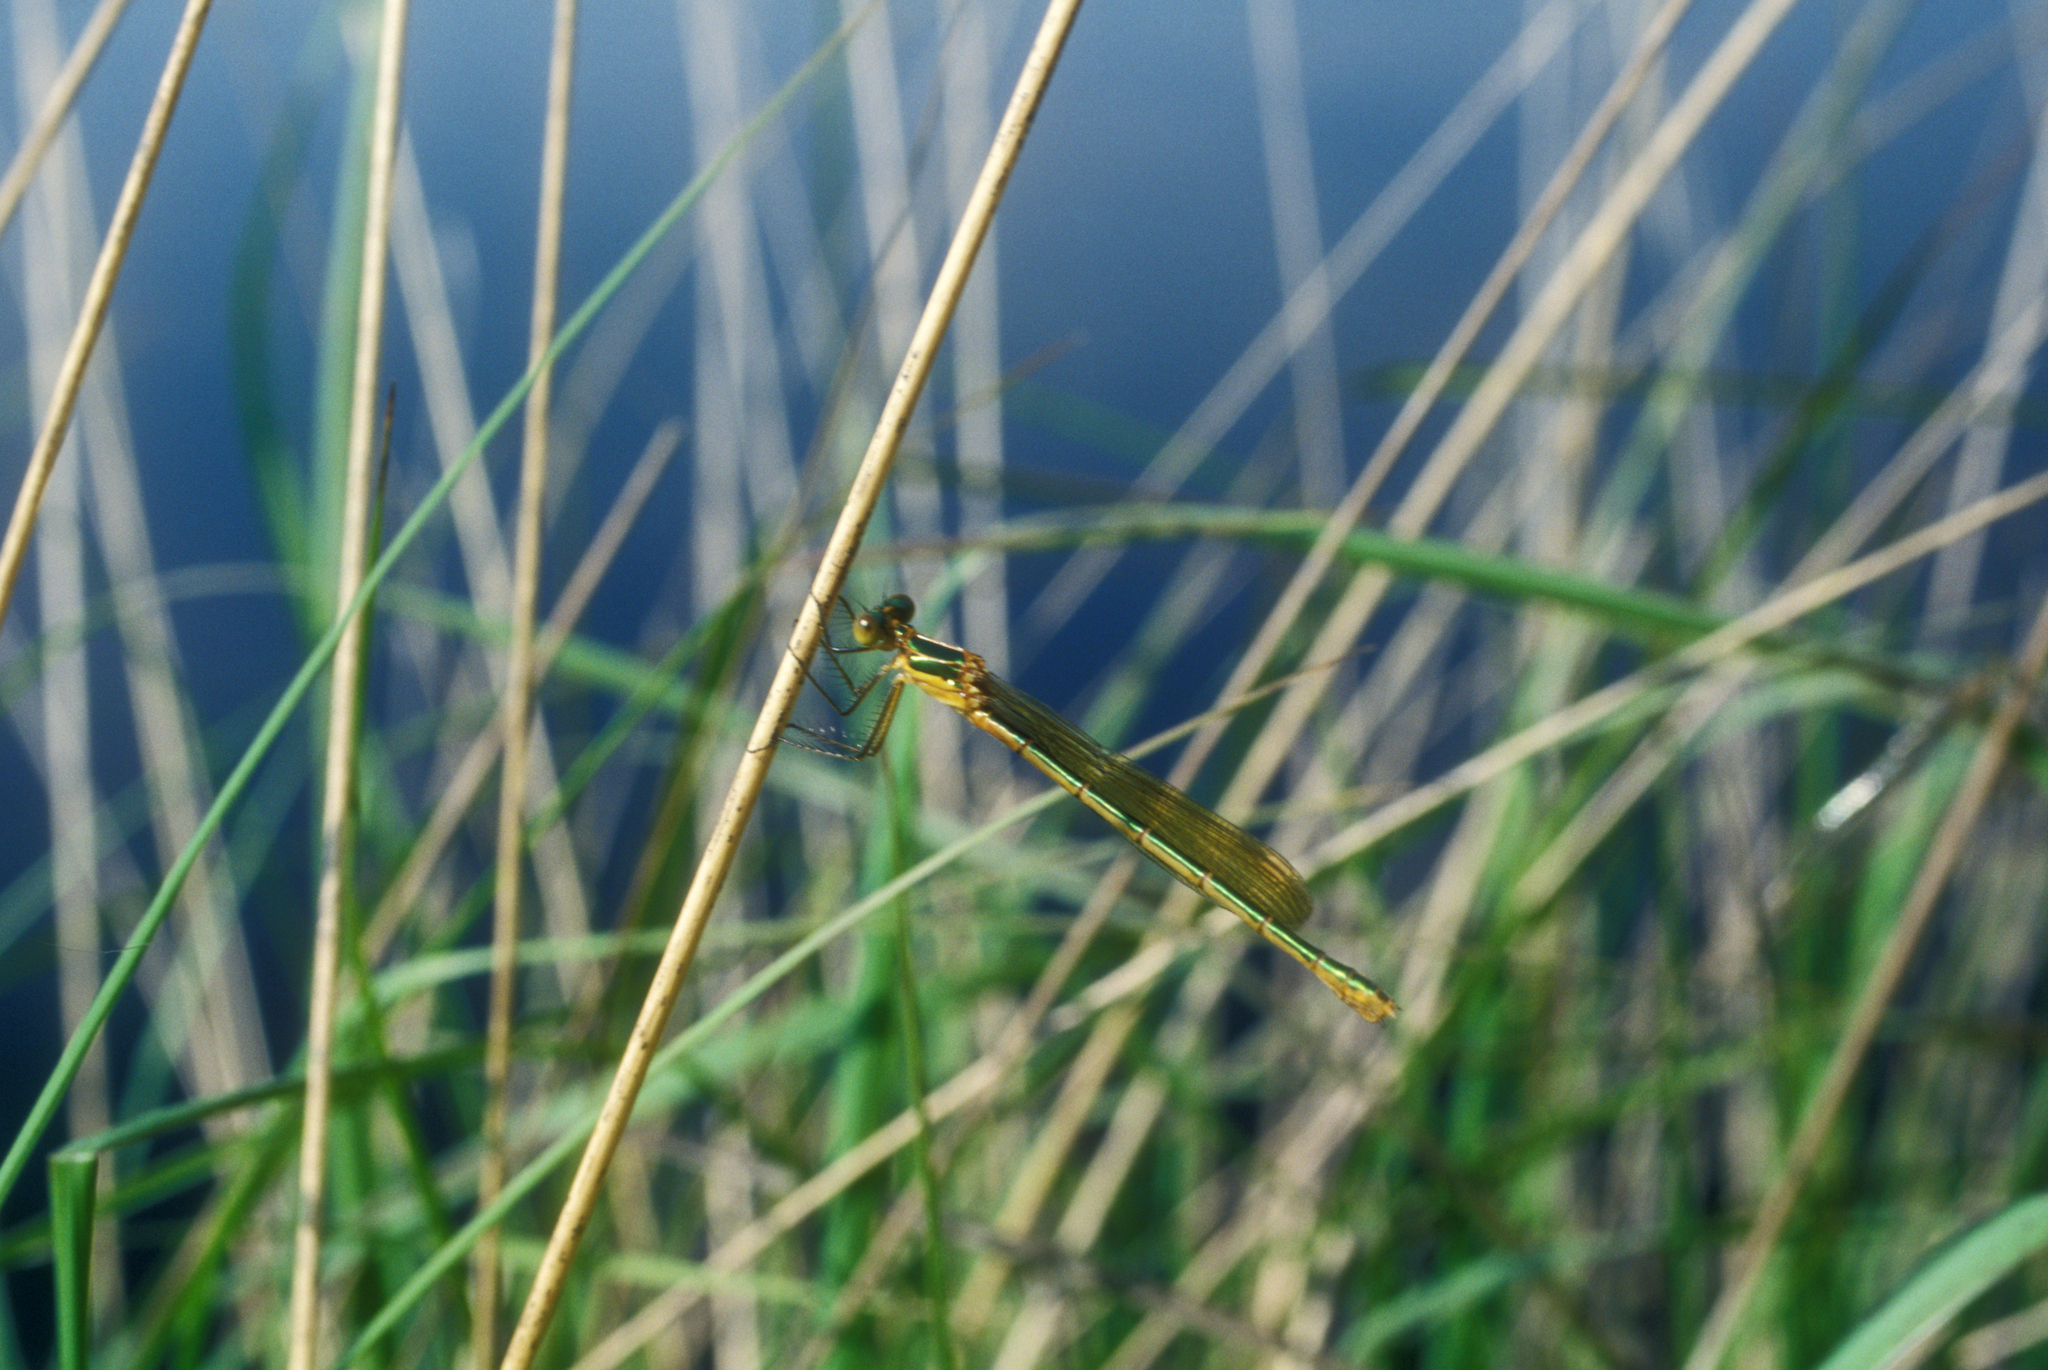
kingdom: Animalia
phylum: Arthropoda
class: Insecta
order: Odonata
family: Lestidae
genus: Lestes
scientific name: Lestes sponsa
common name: Common spreadwing
